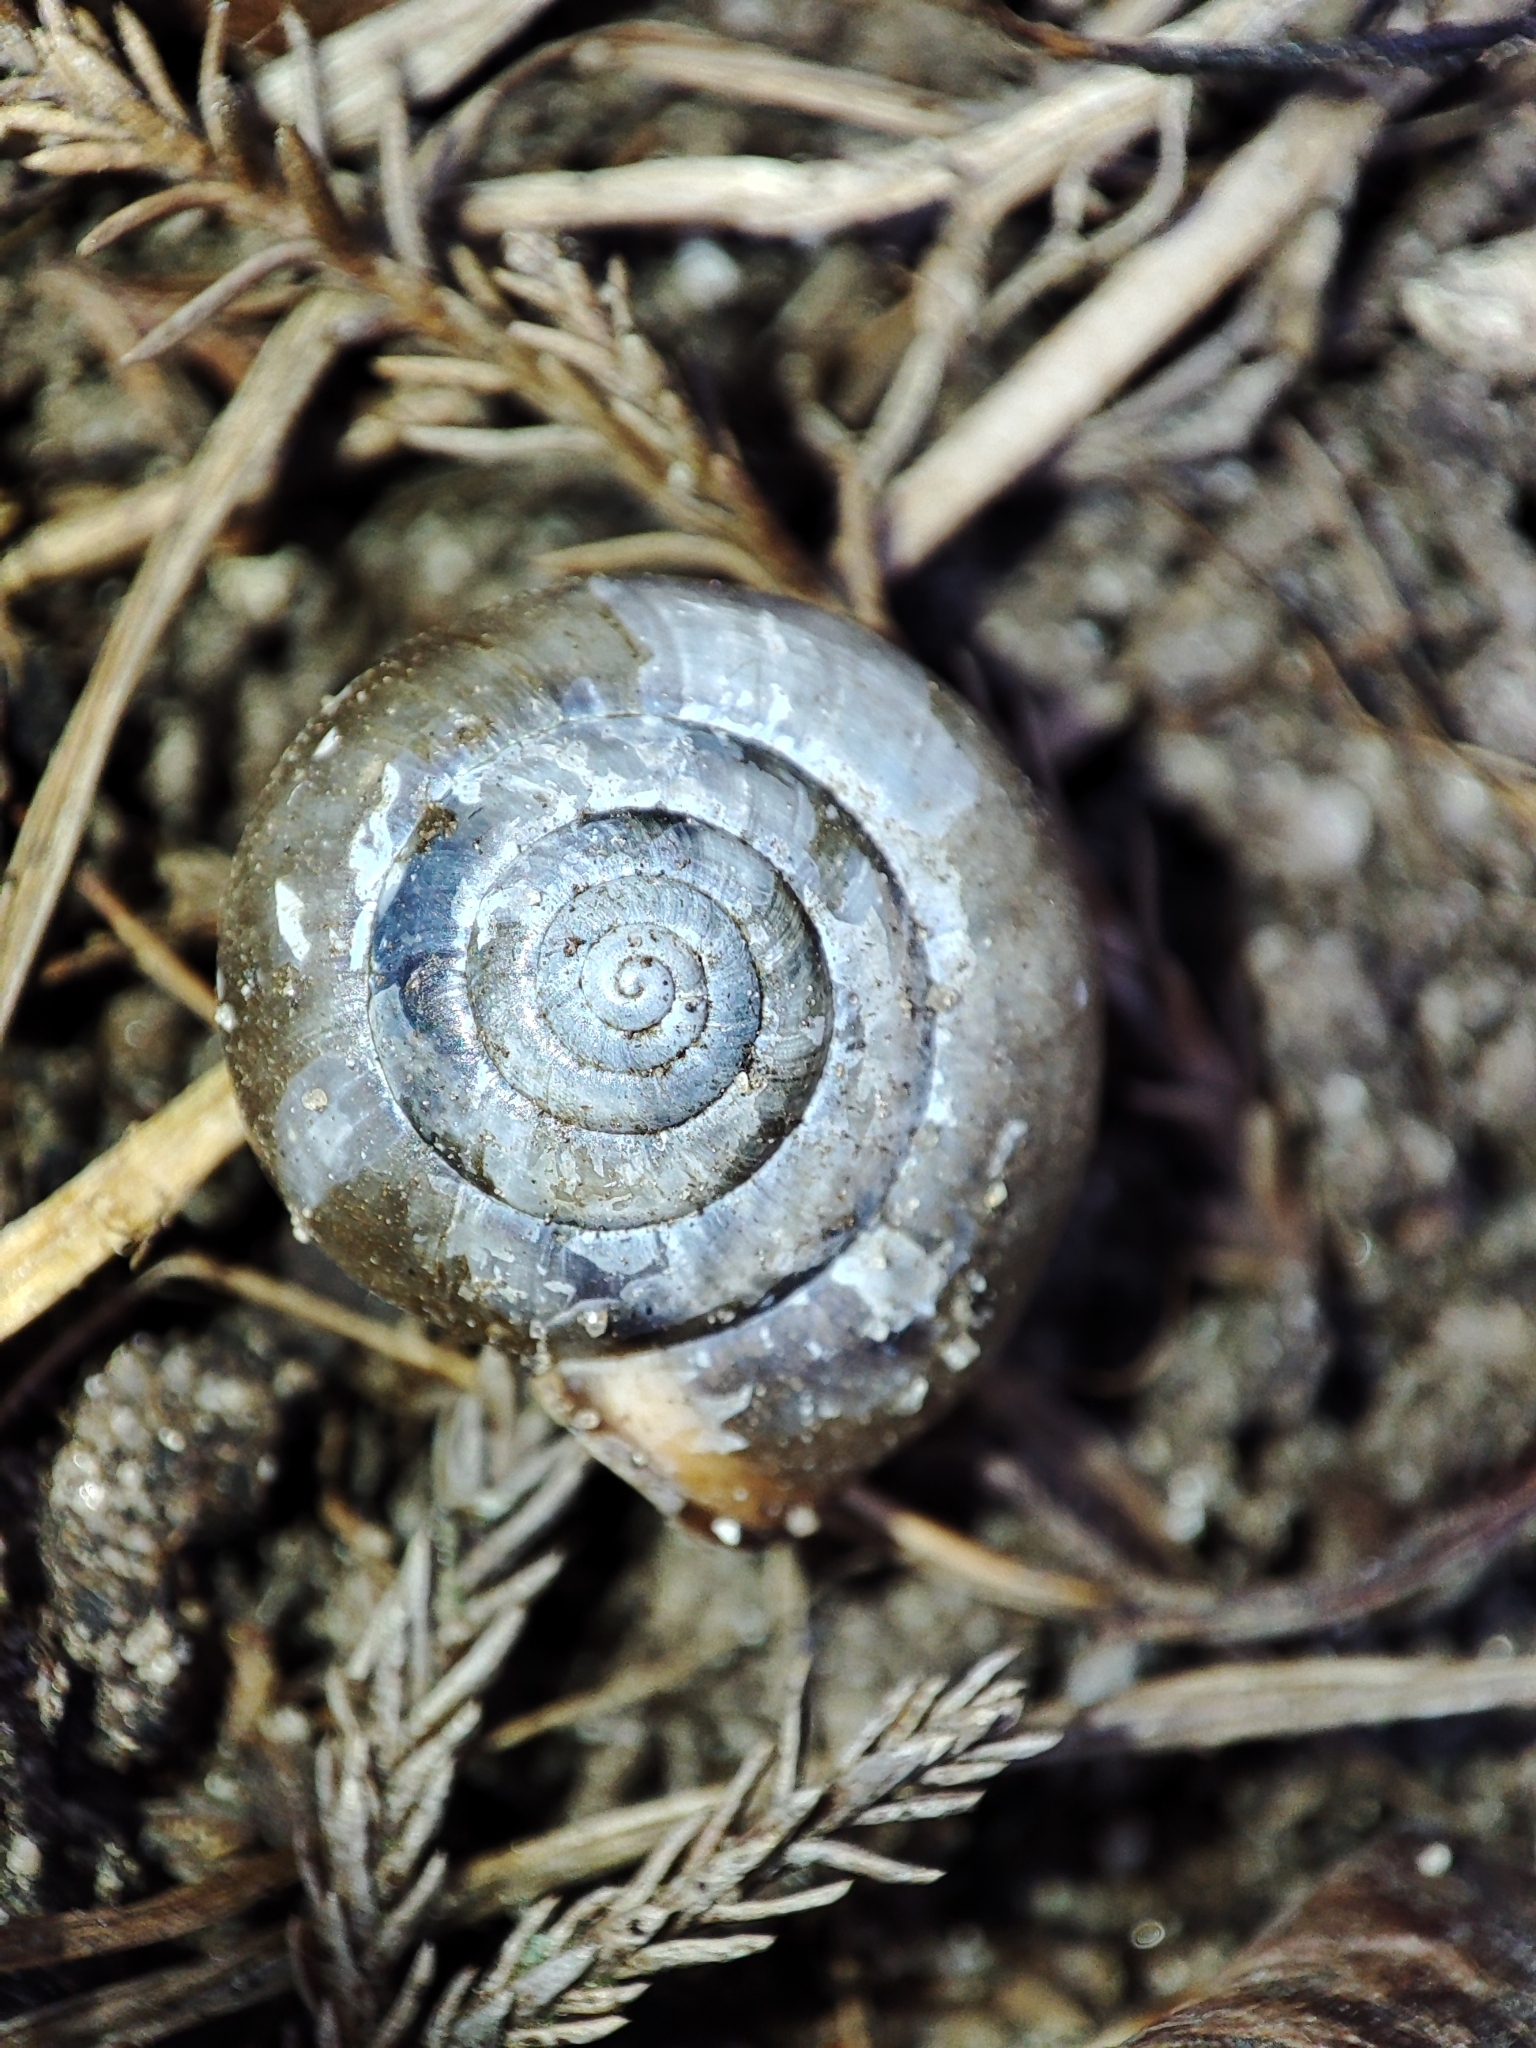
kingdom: Animalia
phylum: Mollusca
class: Gastropoda
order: Stylommatophora
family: Hygromiidae
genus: Monacha
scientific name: Monacha cartusiana
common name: Carthusian snail
